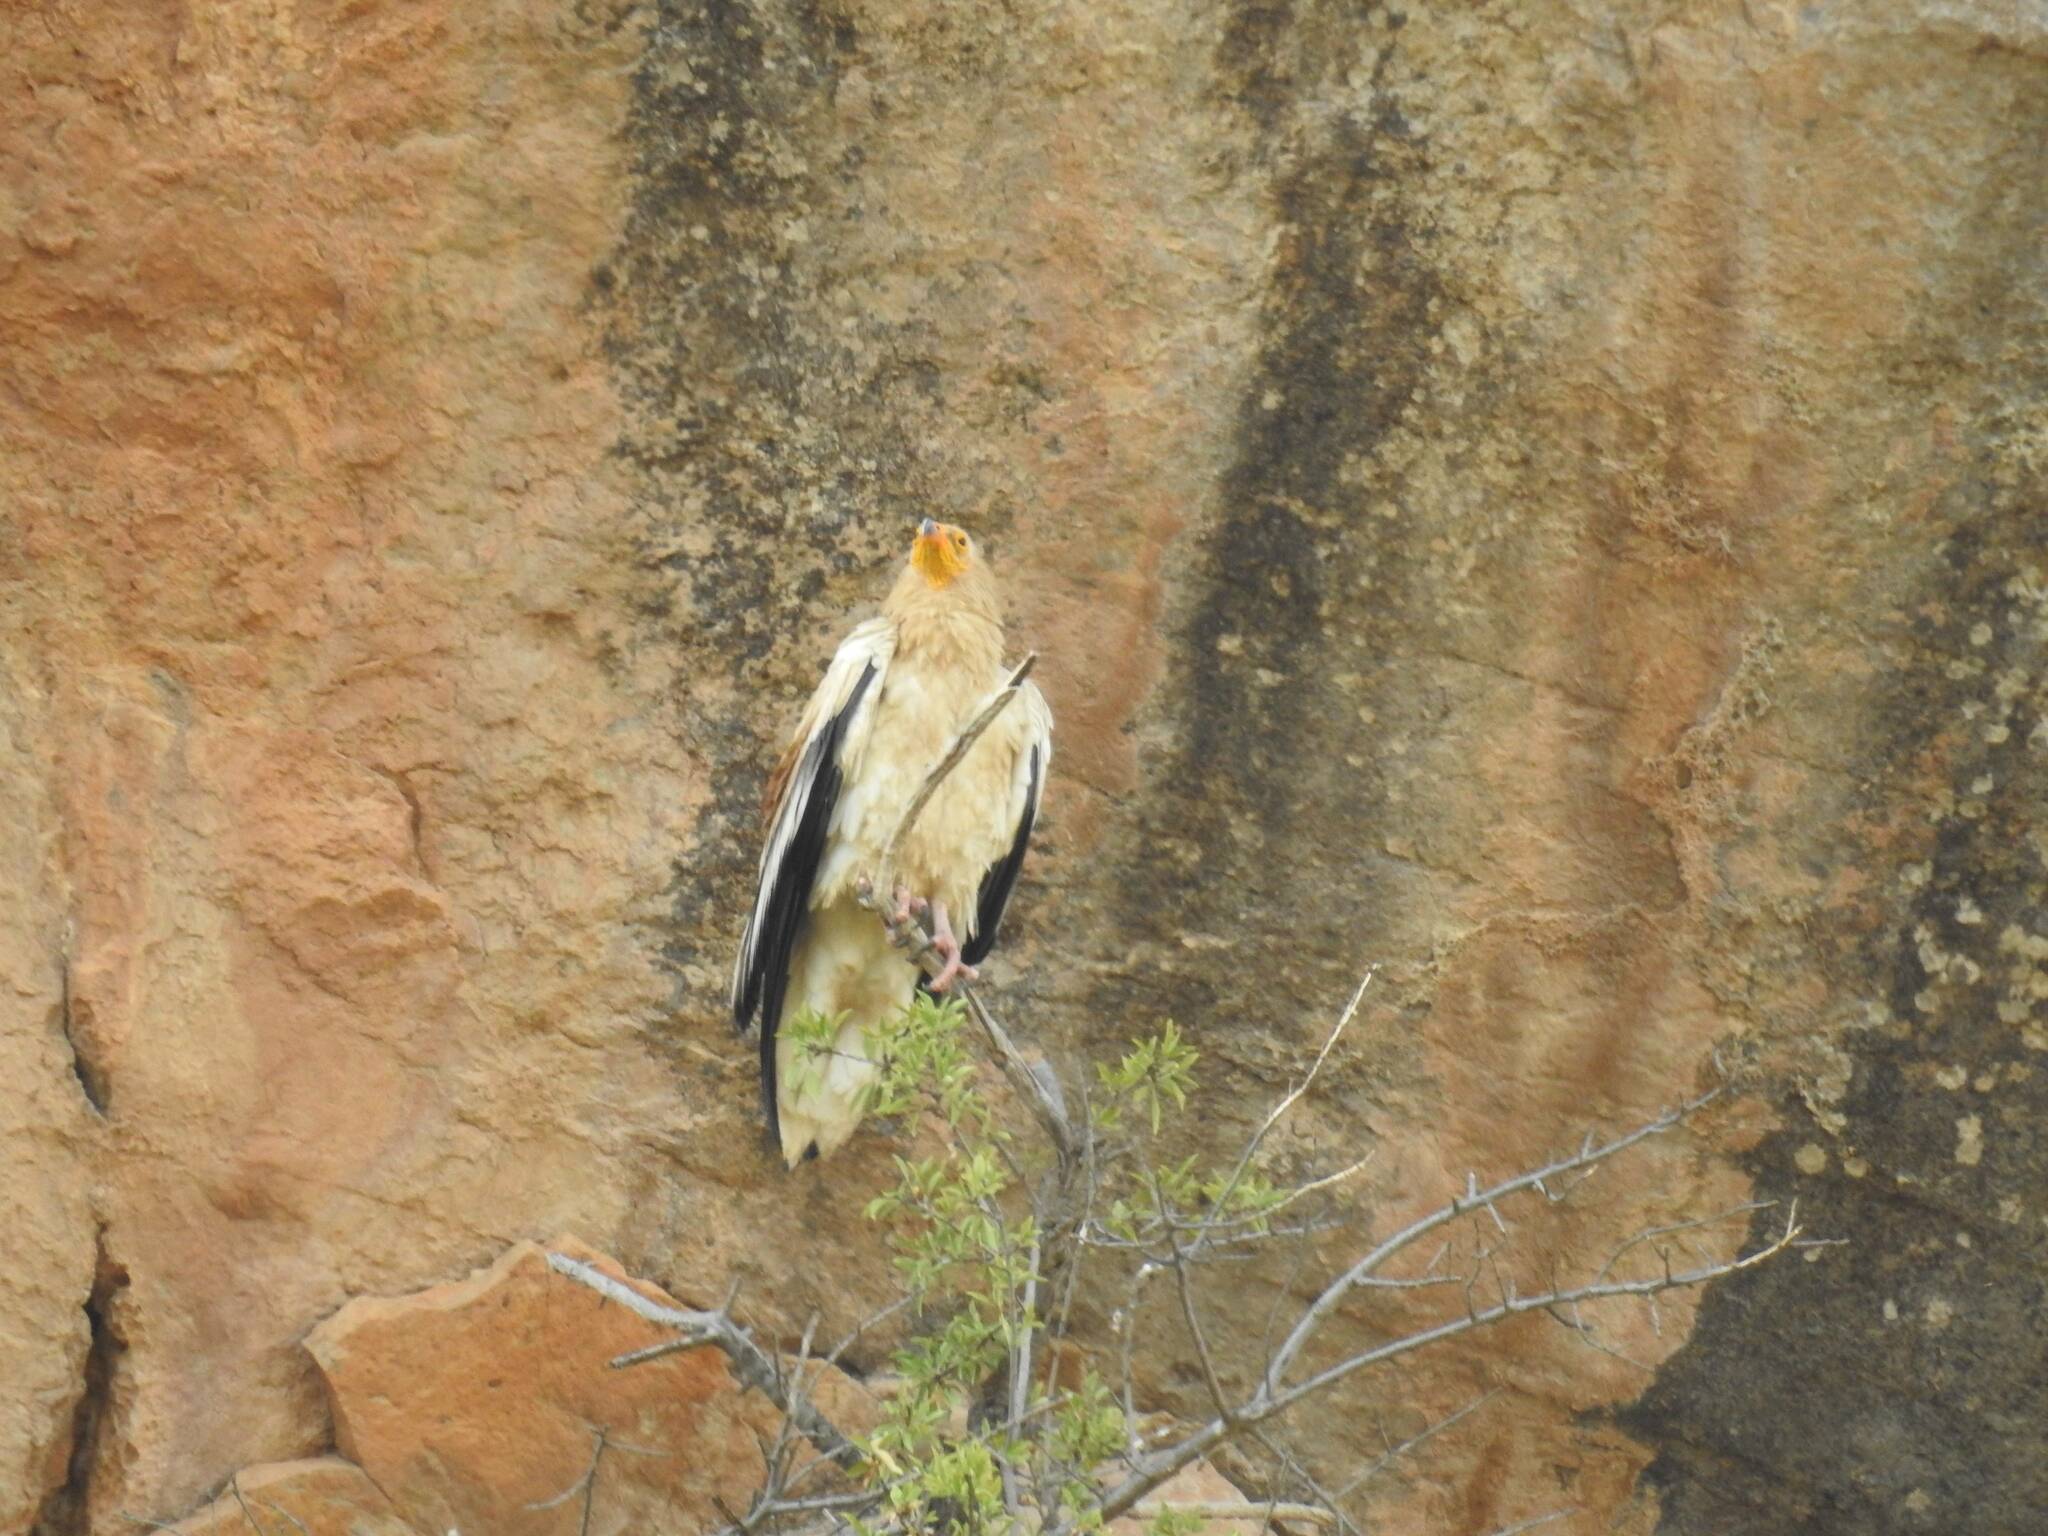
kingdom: Animalia
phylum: Chordata
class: Aves
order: Accipitriformes
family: Accipitridae
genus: Neophron
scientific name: Neophron percnopterus
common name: Egyptian vulture
